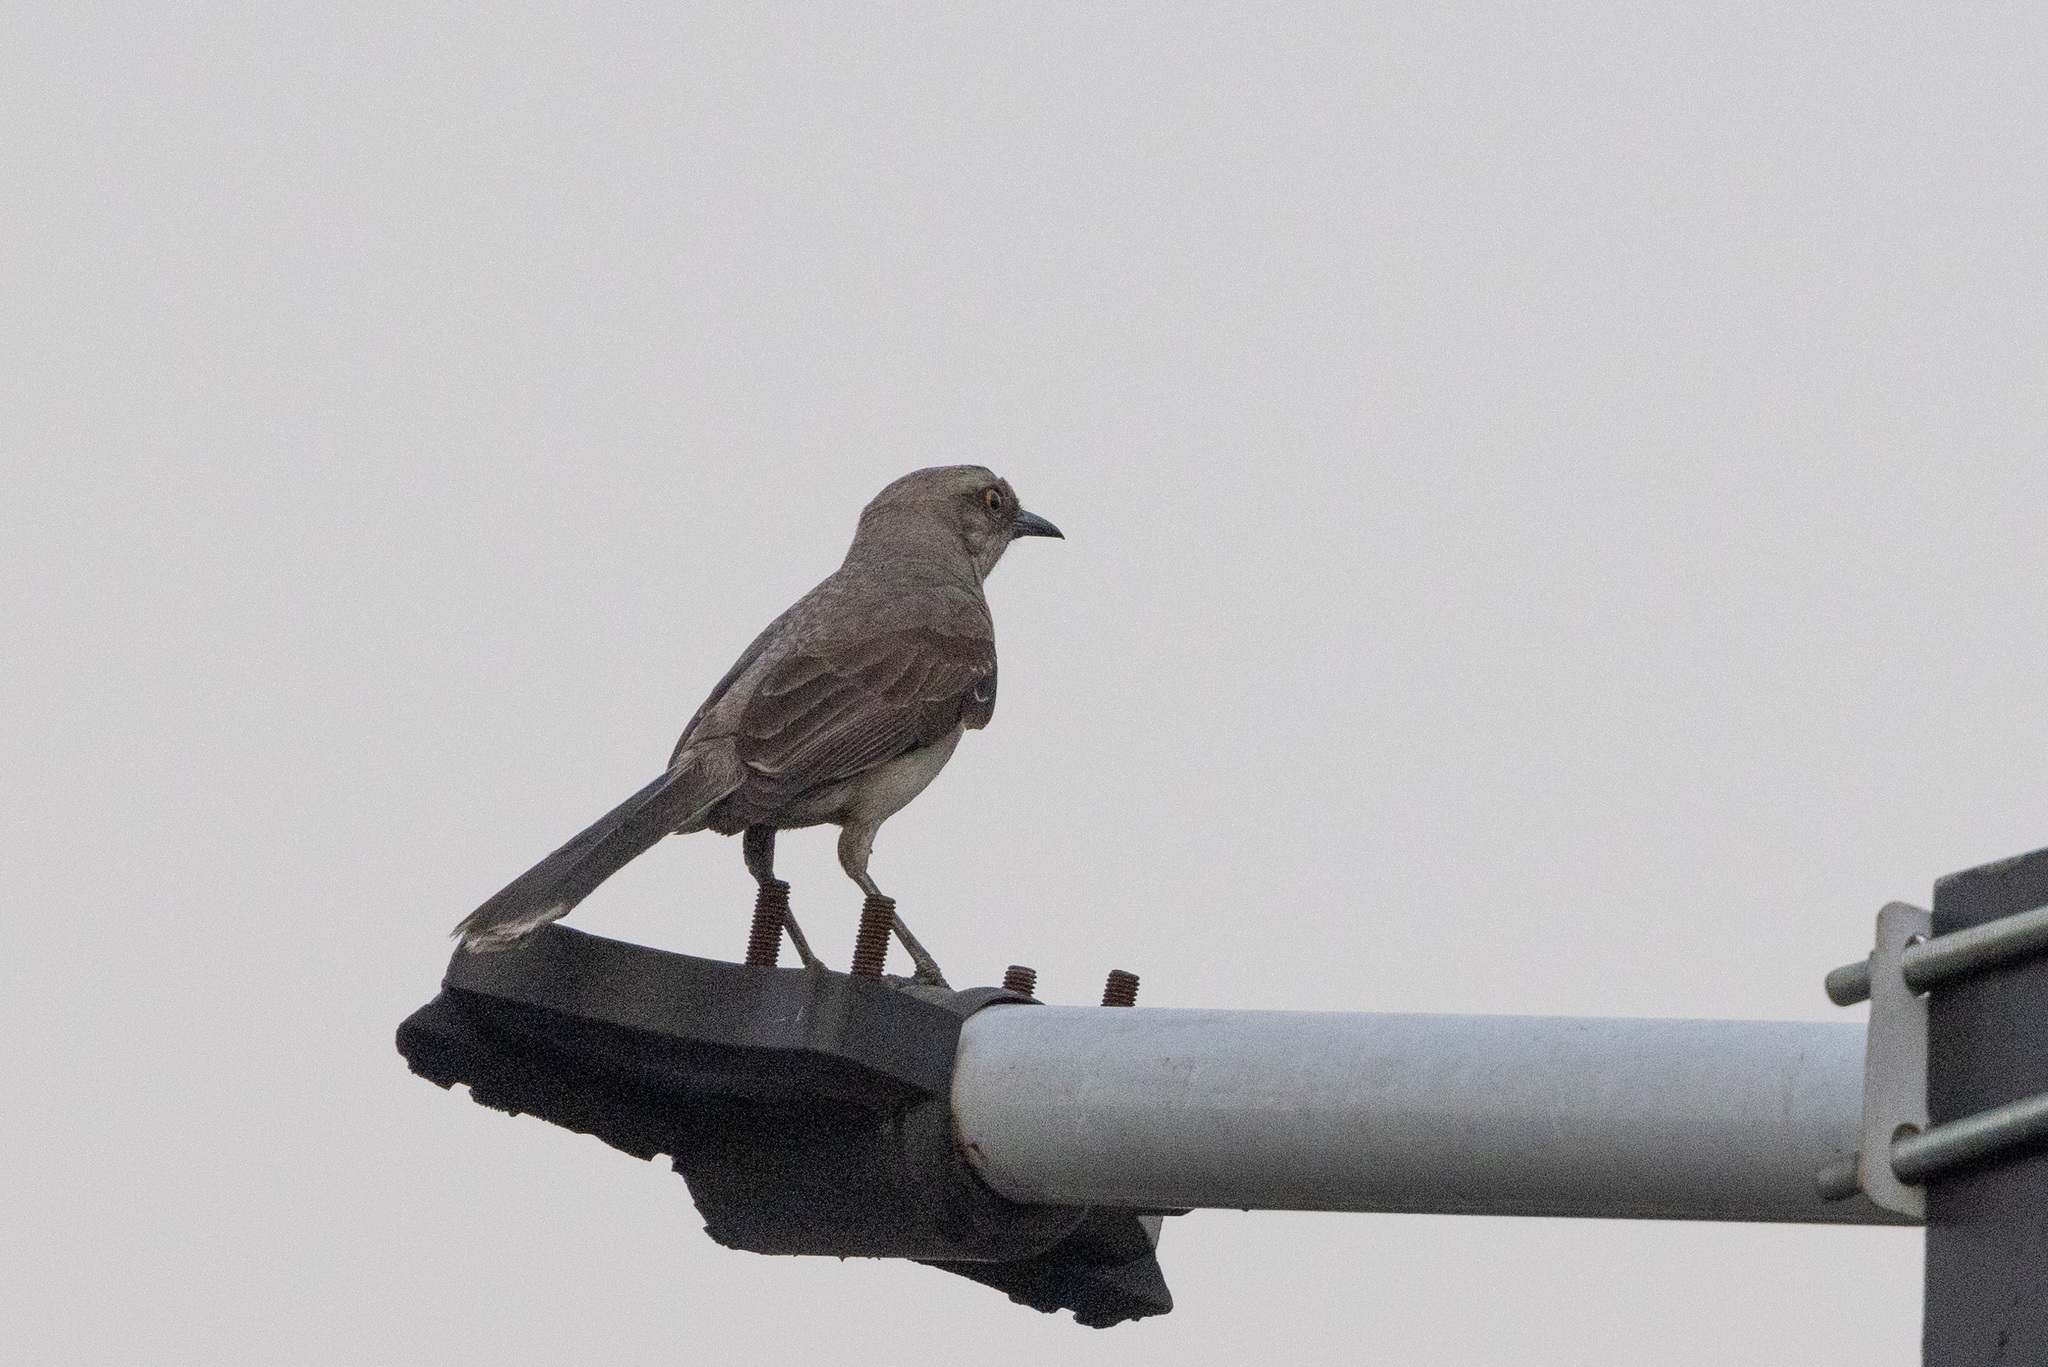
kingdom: Animalia
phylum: Chordata
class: Aves
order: Passeriformes
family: Mimidae
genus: Mimus
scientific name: Mimus gilvus
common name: Tropical mockingbird
